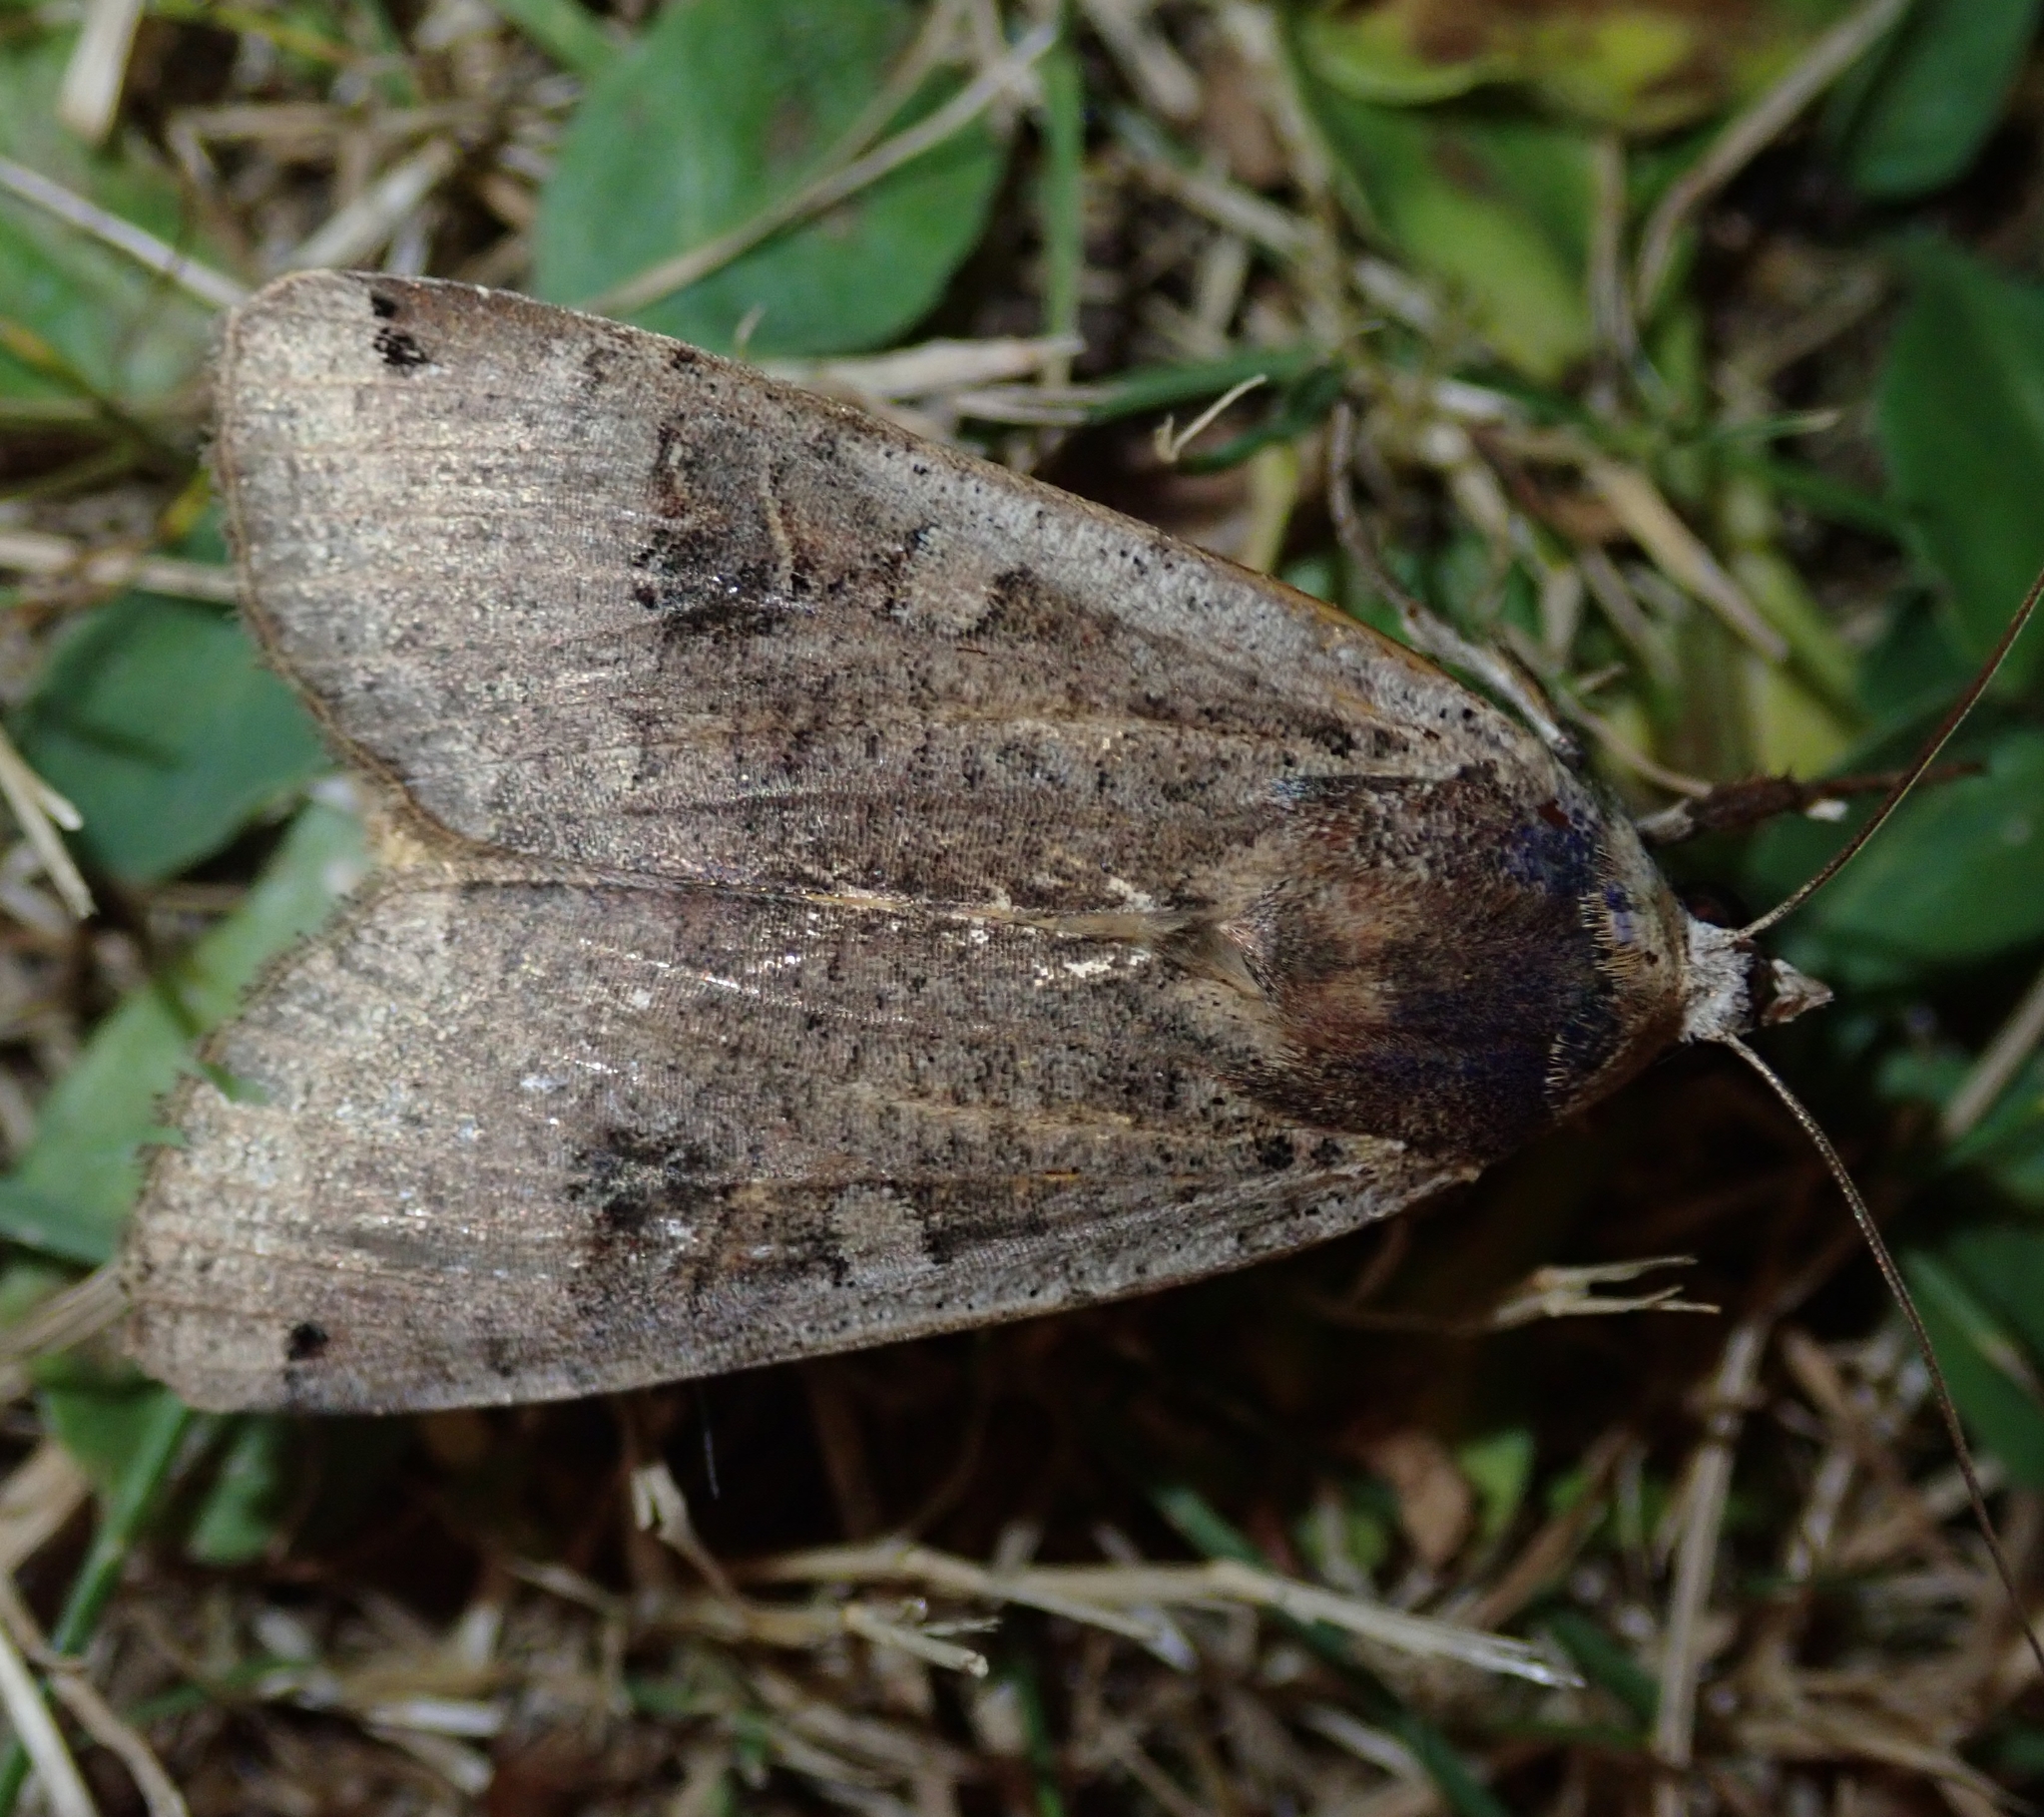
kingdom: Animalia
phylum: Arthropoda
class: Insecta
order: Lepidoptera
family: Noctuidae
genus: Noctua
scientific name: Noctua pronuba
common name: Large yellow underwing
